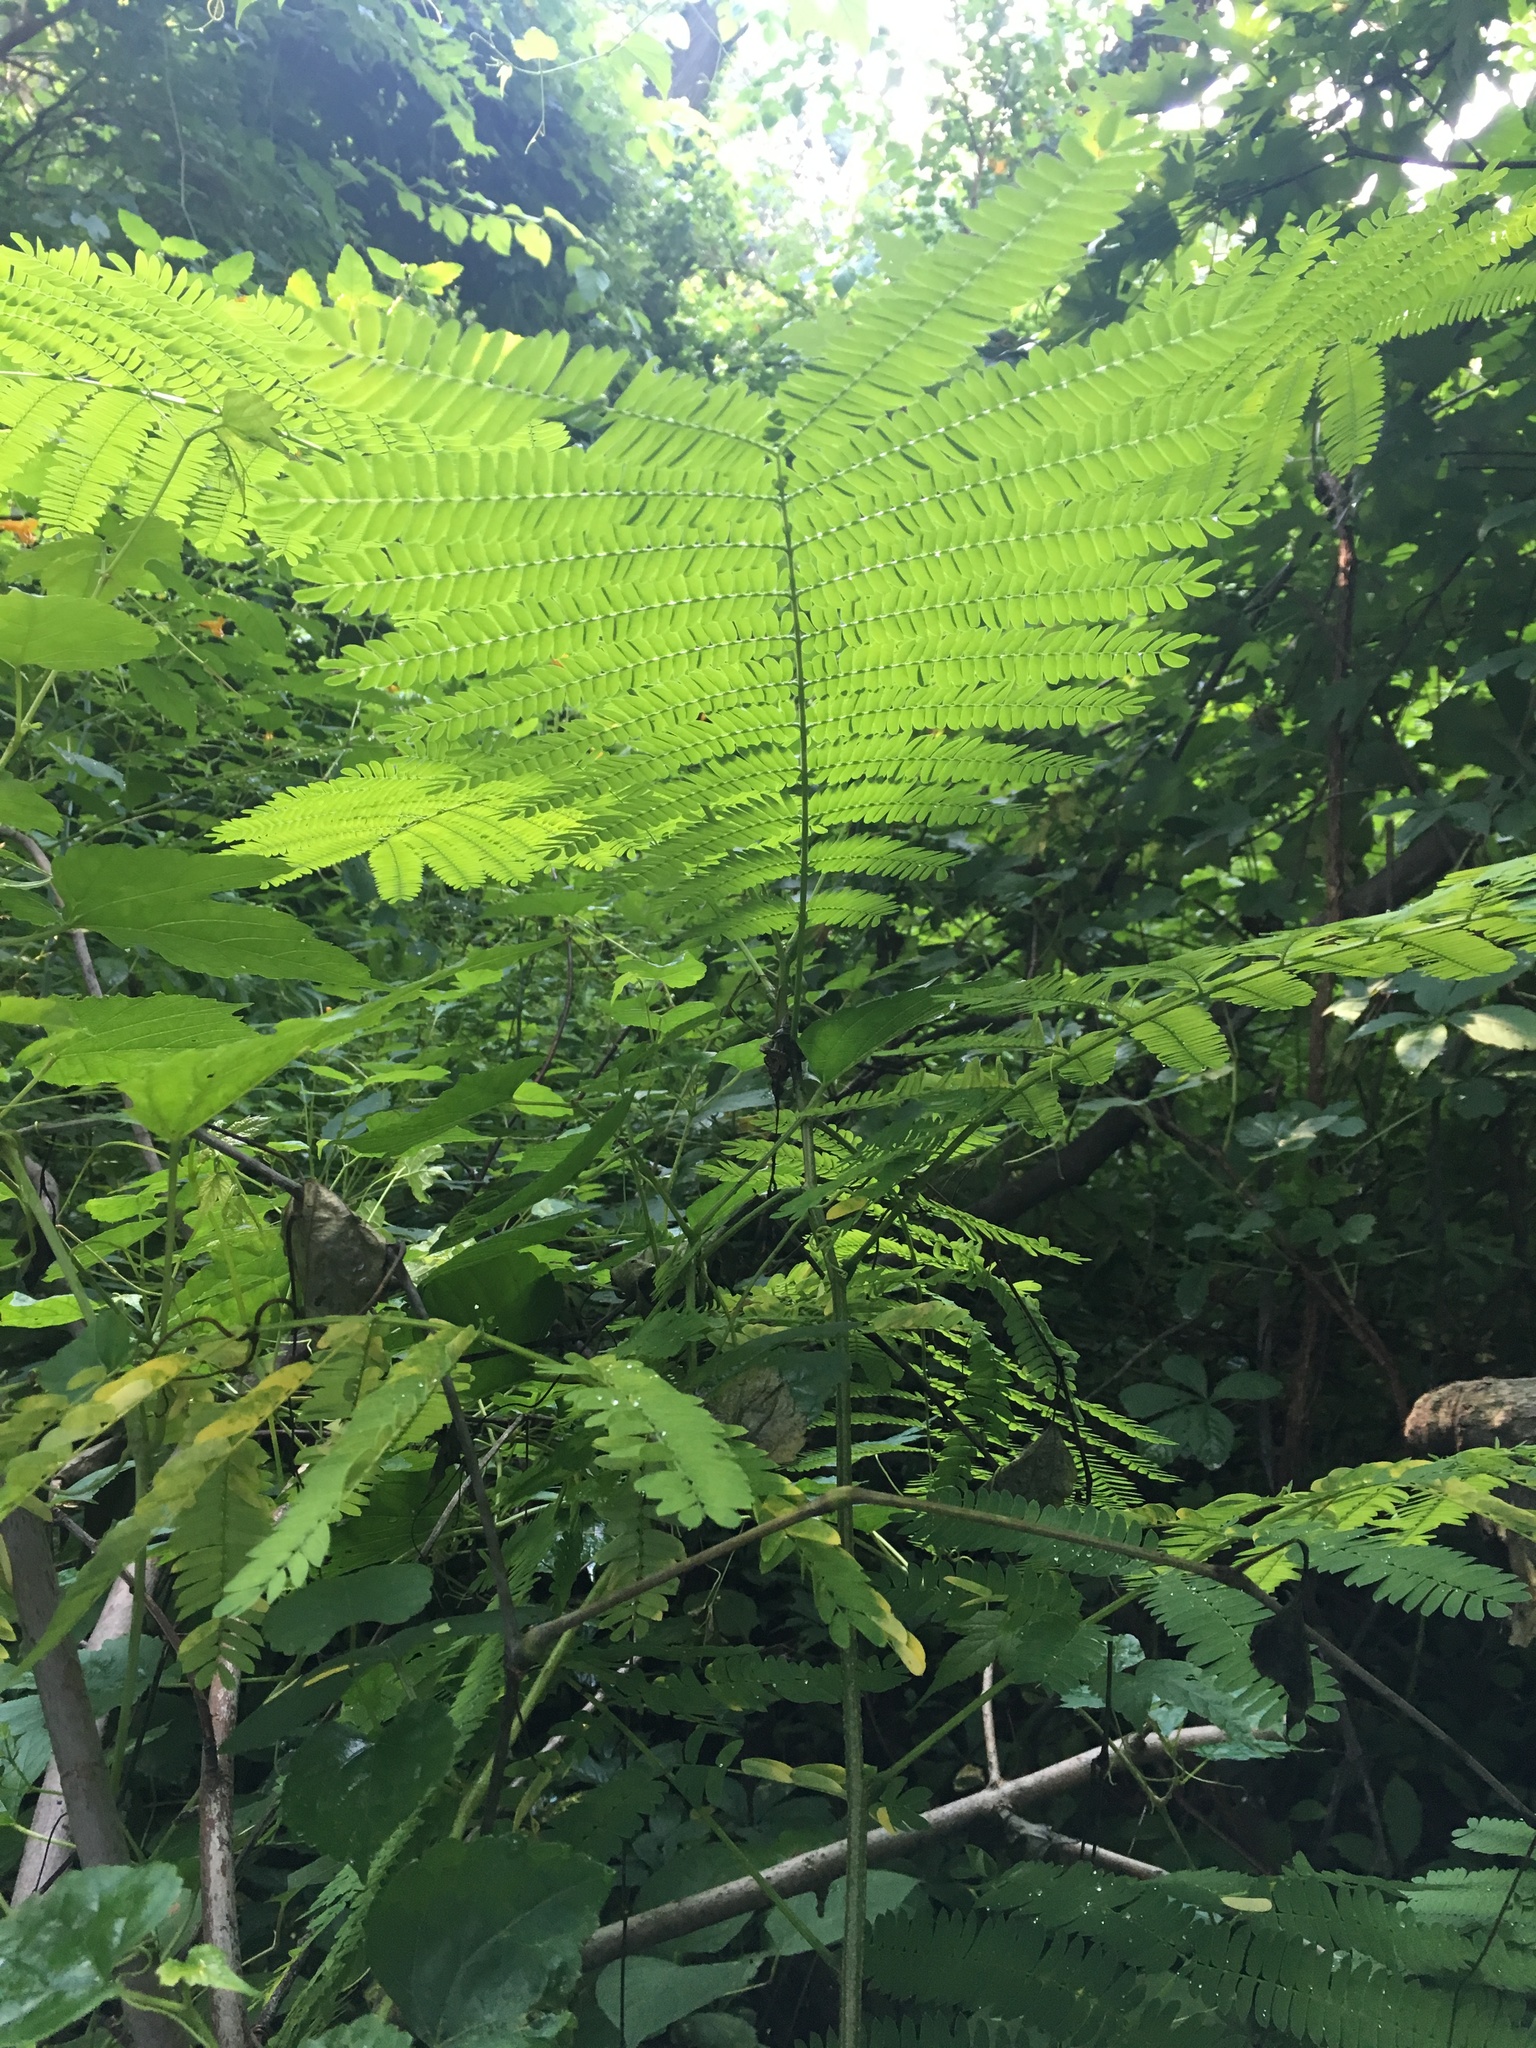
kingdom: Plantae
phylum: Tracheophyta
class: Magnoliopsida
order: Fabales
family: Fabaceae
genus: Albizia
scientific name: Albizia julibrissin
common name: Silktree
